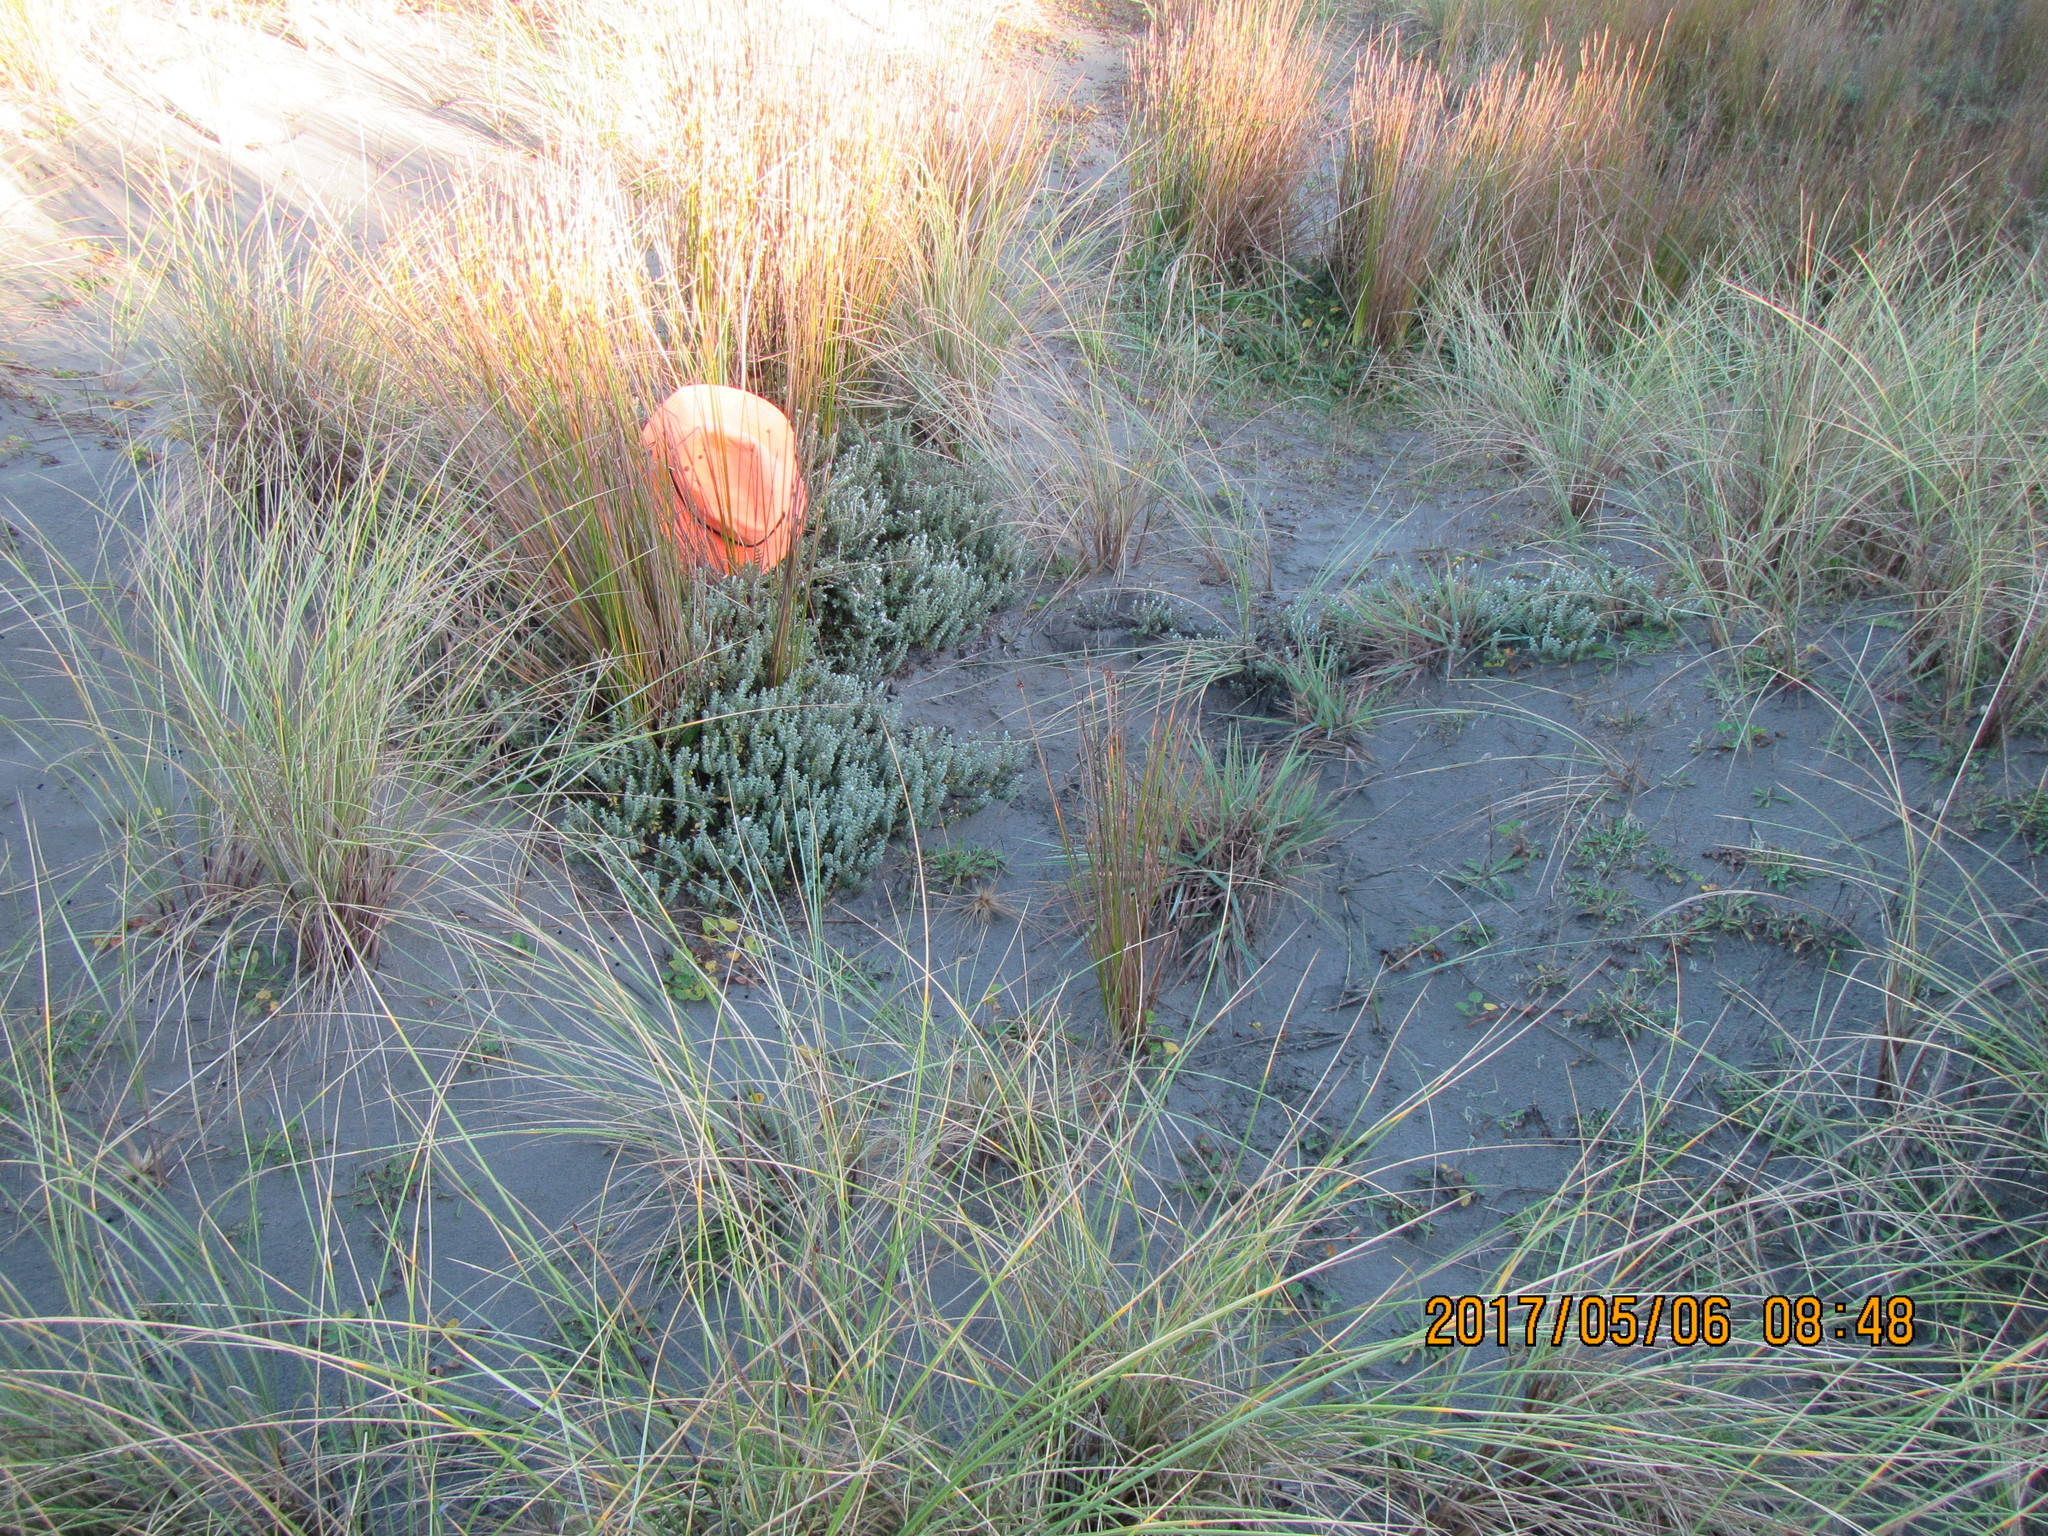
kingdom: Plantae
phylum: Tracheophyta
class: Magnoliopsida
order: Malvales
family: Thymelaeaceae
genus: Pimelea
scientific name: Pimelea villosa
